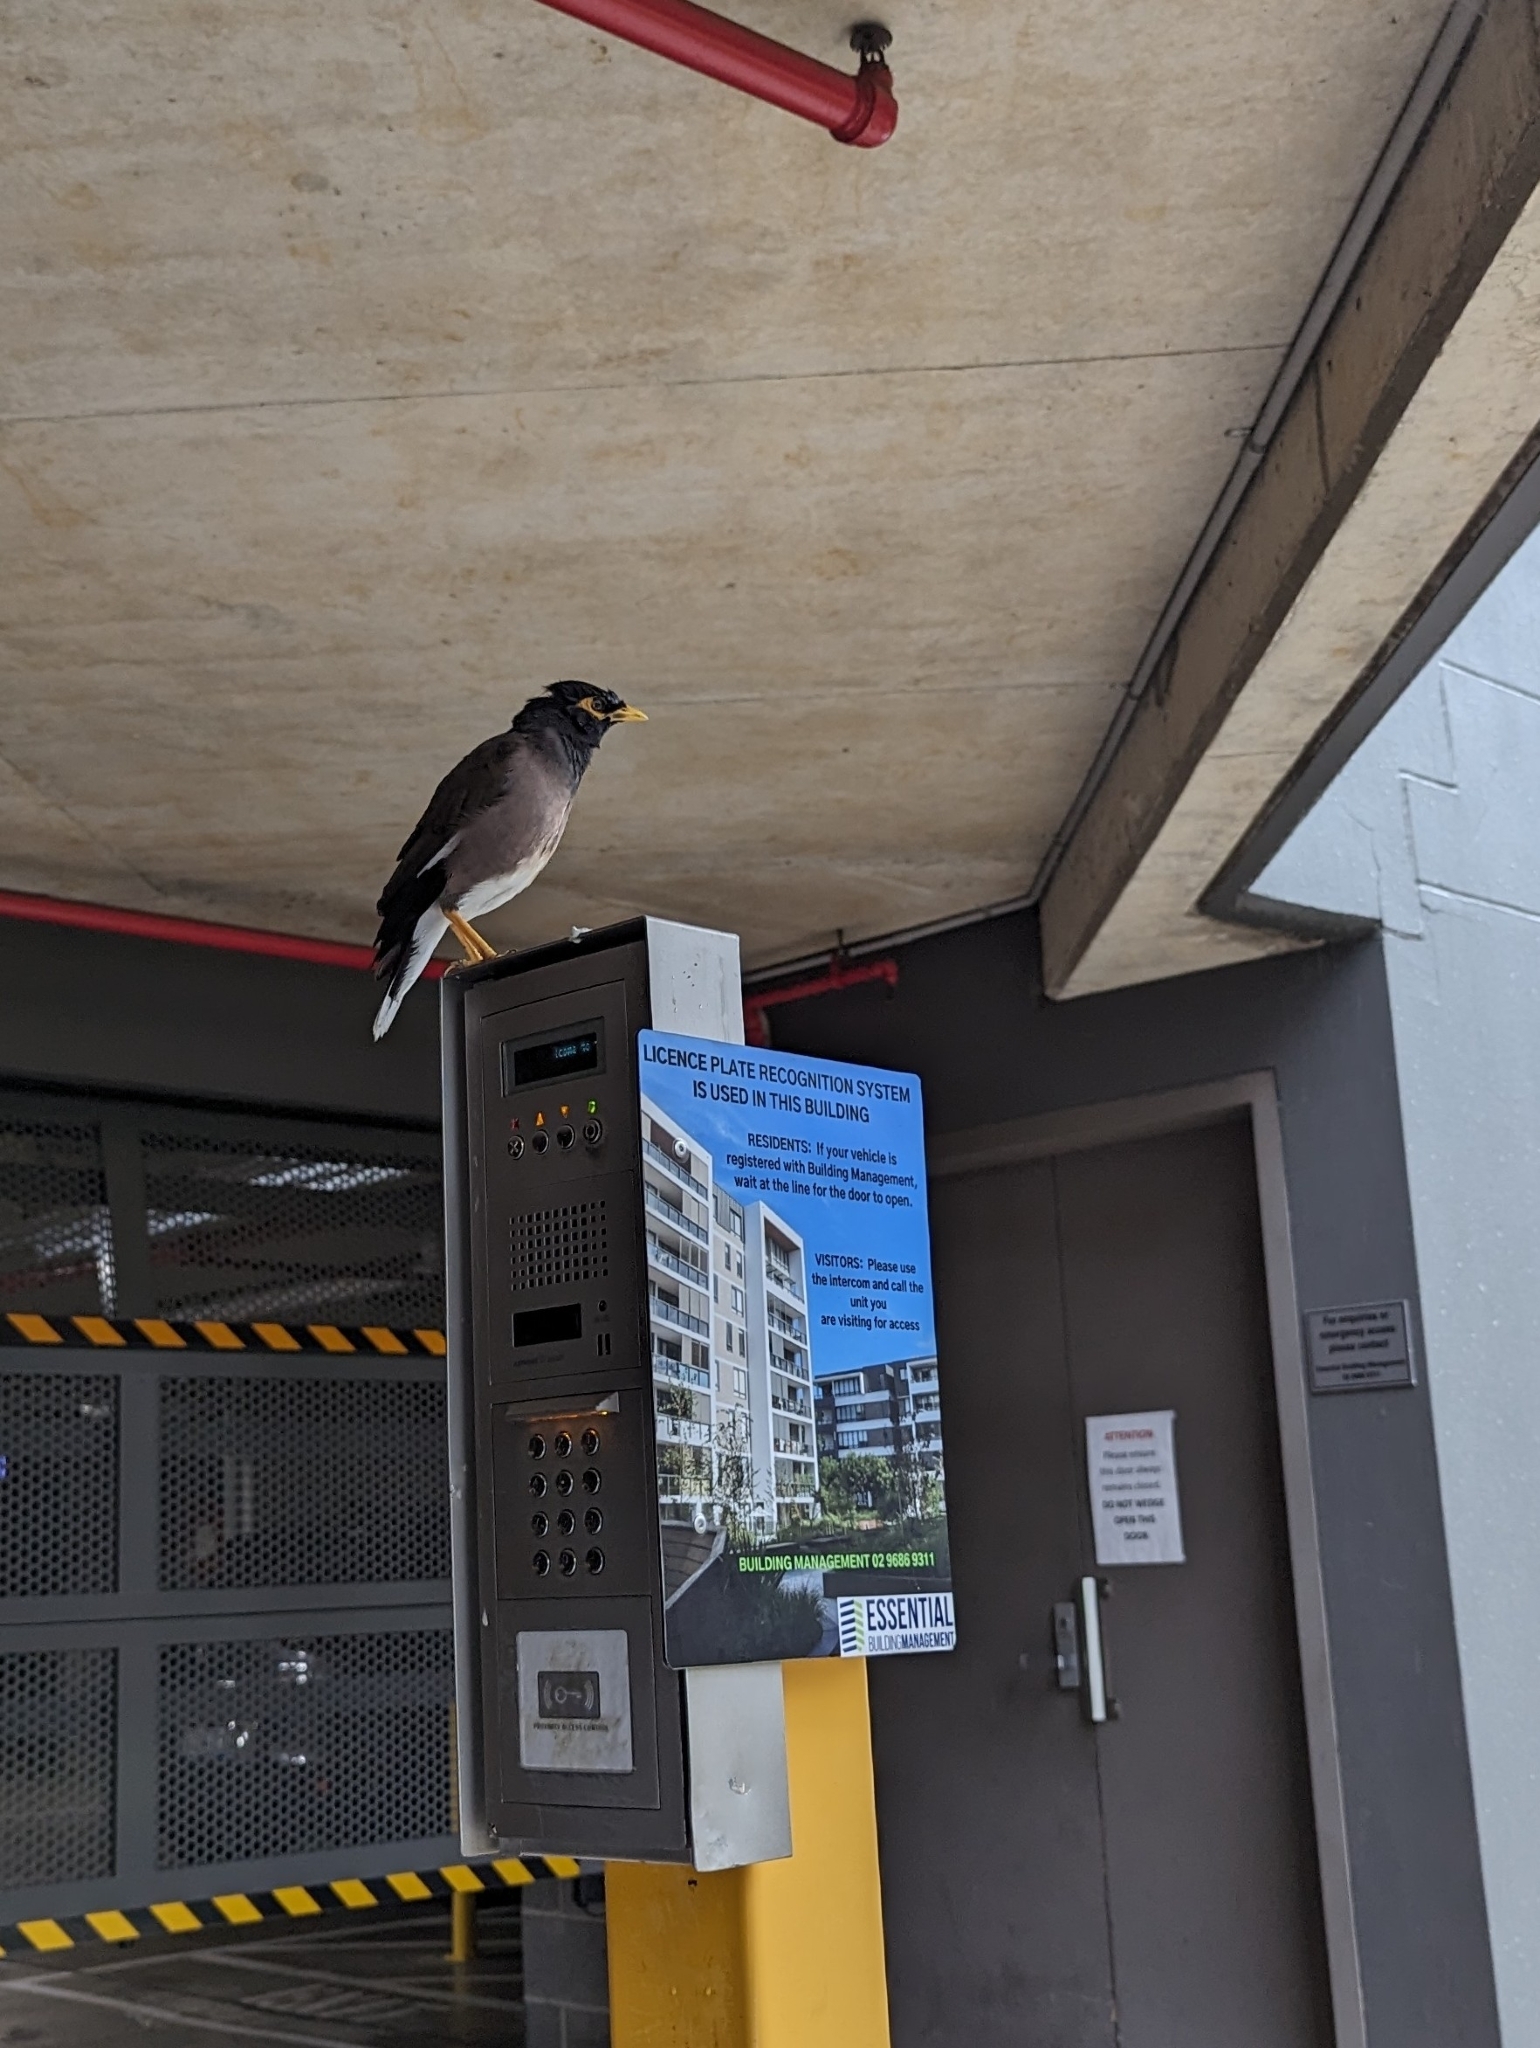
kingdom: Animalia
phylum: Chordata
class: Aves
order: Passeriformes
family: Sturnidae
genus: Acridotheres
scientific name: Acridotheres tristis
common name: Common myna
